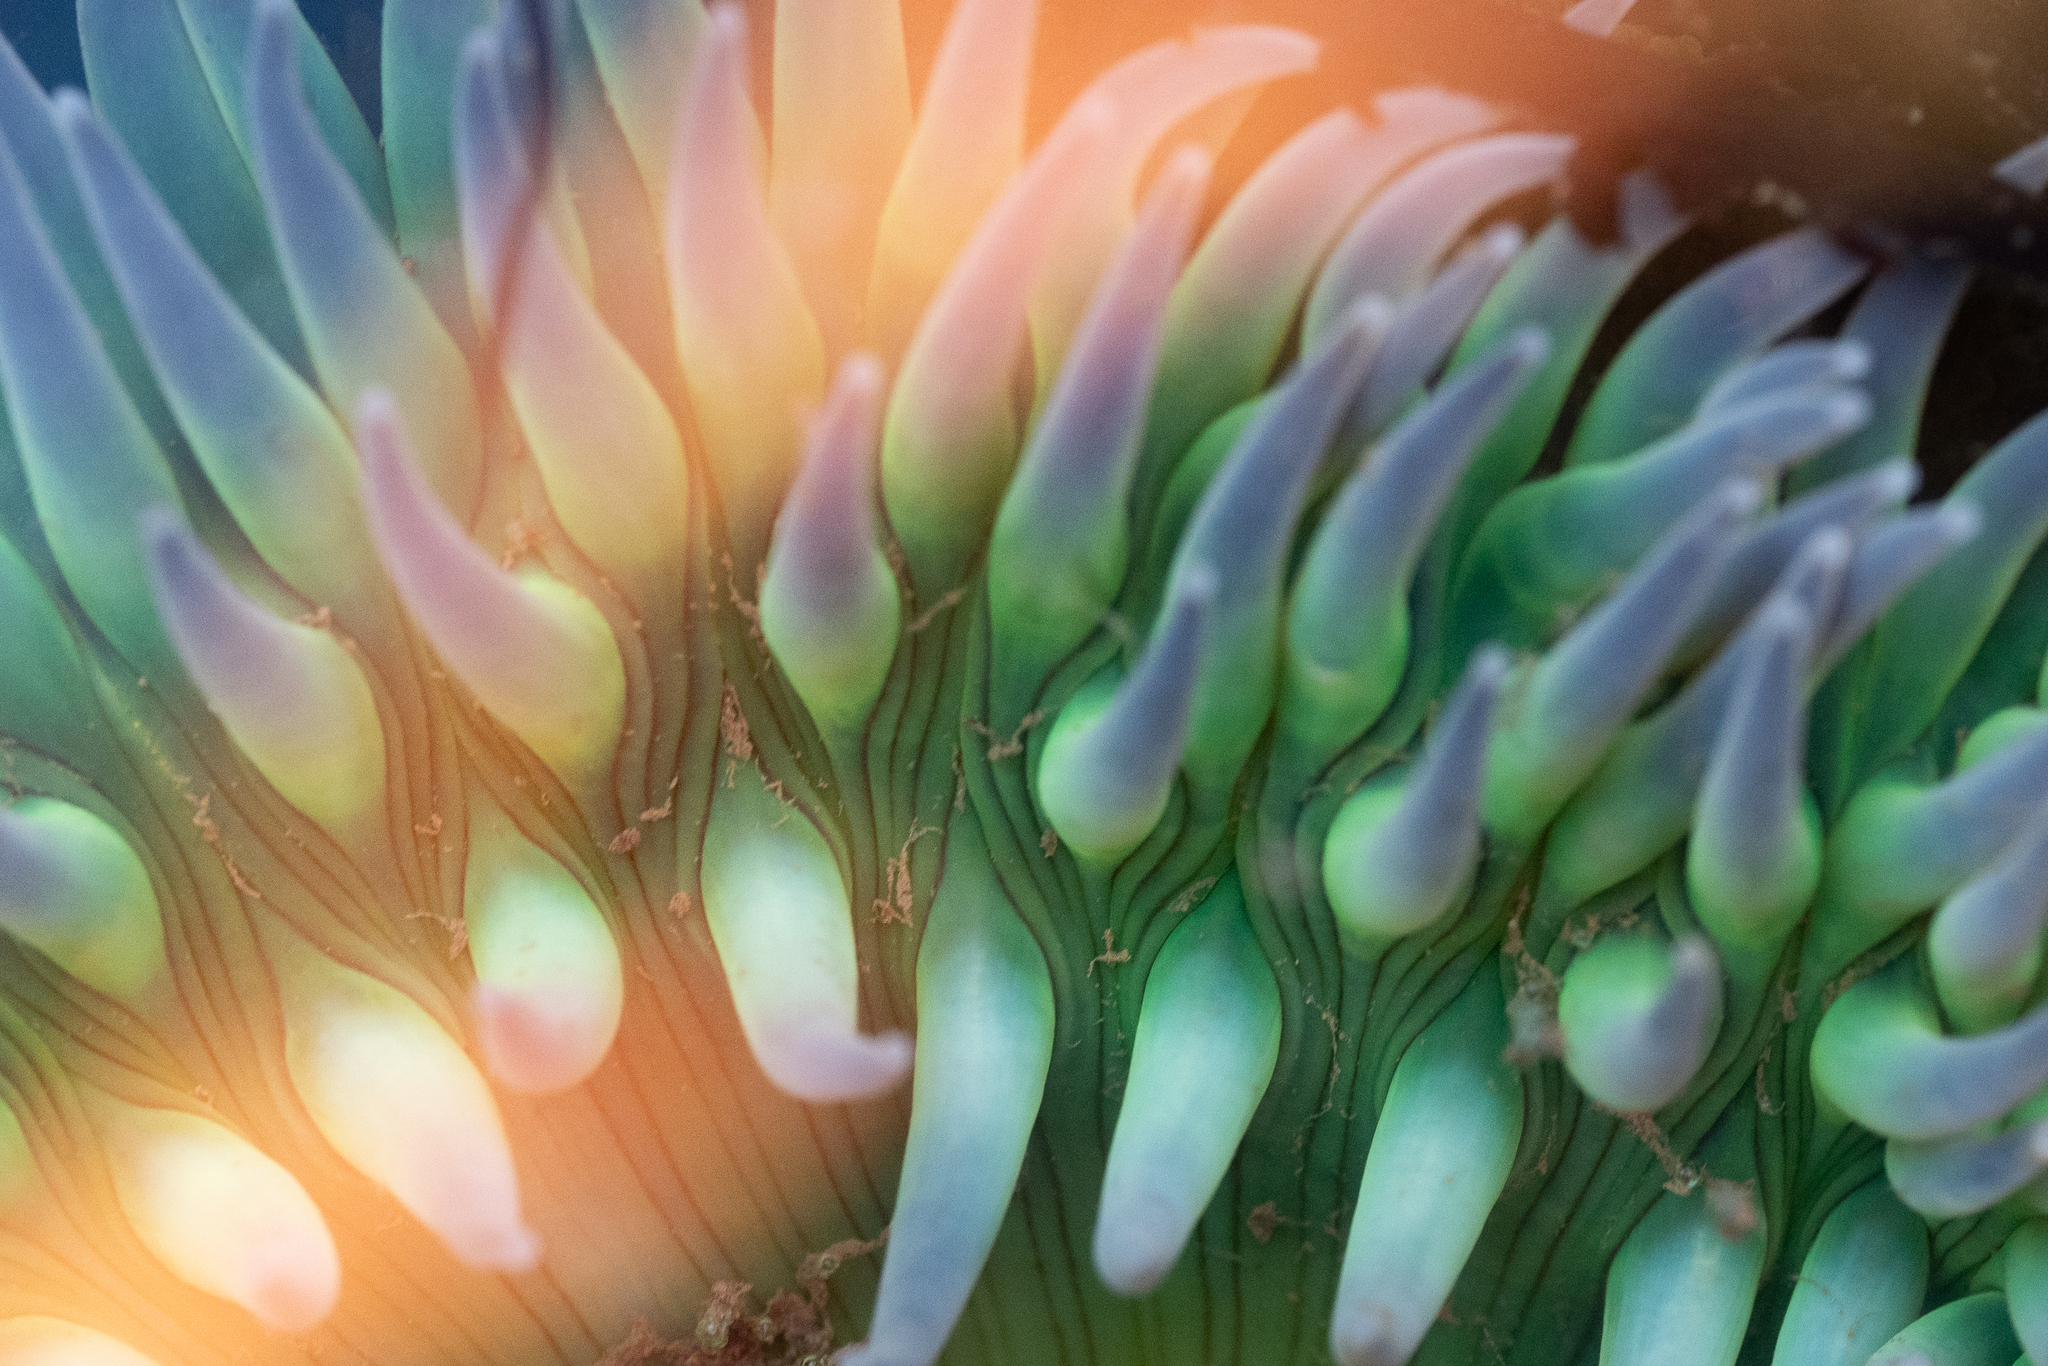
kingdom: Animalia
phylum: Cnidaria
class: Anthozoa
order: Actiniaria
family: Actiniidae
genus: Anthopleura
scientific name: Anthopleura sola
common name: Sun anemone
